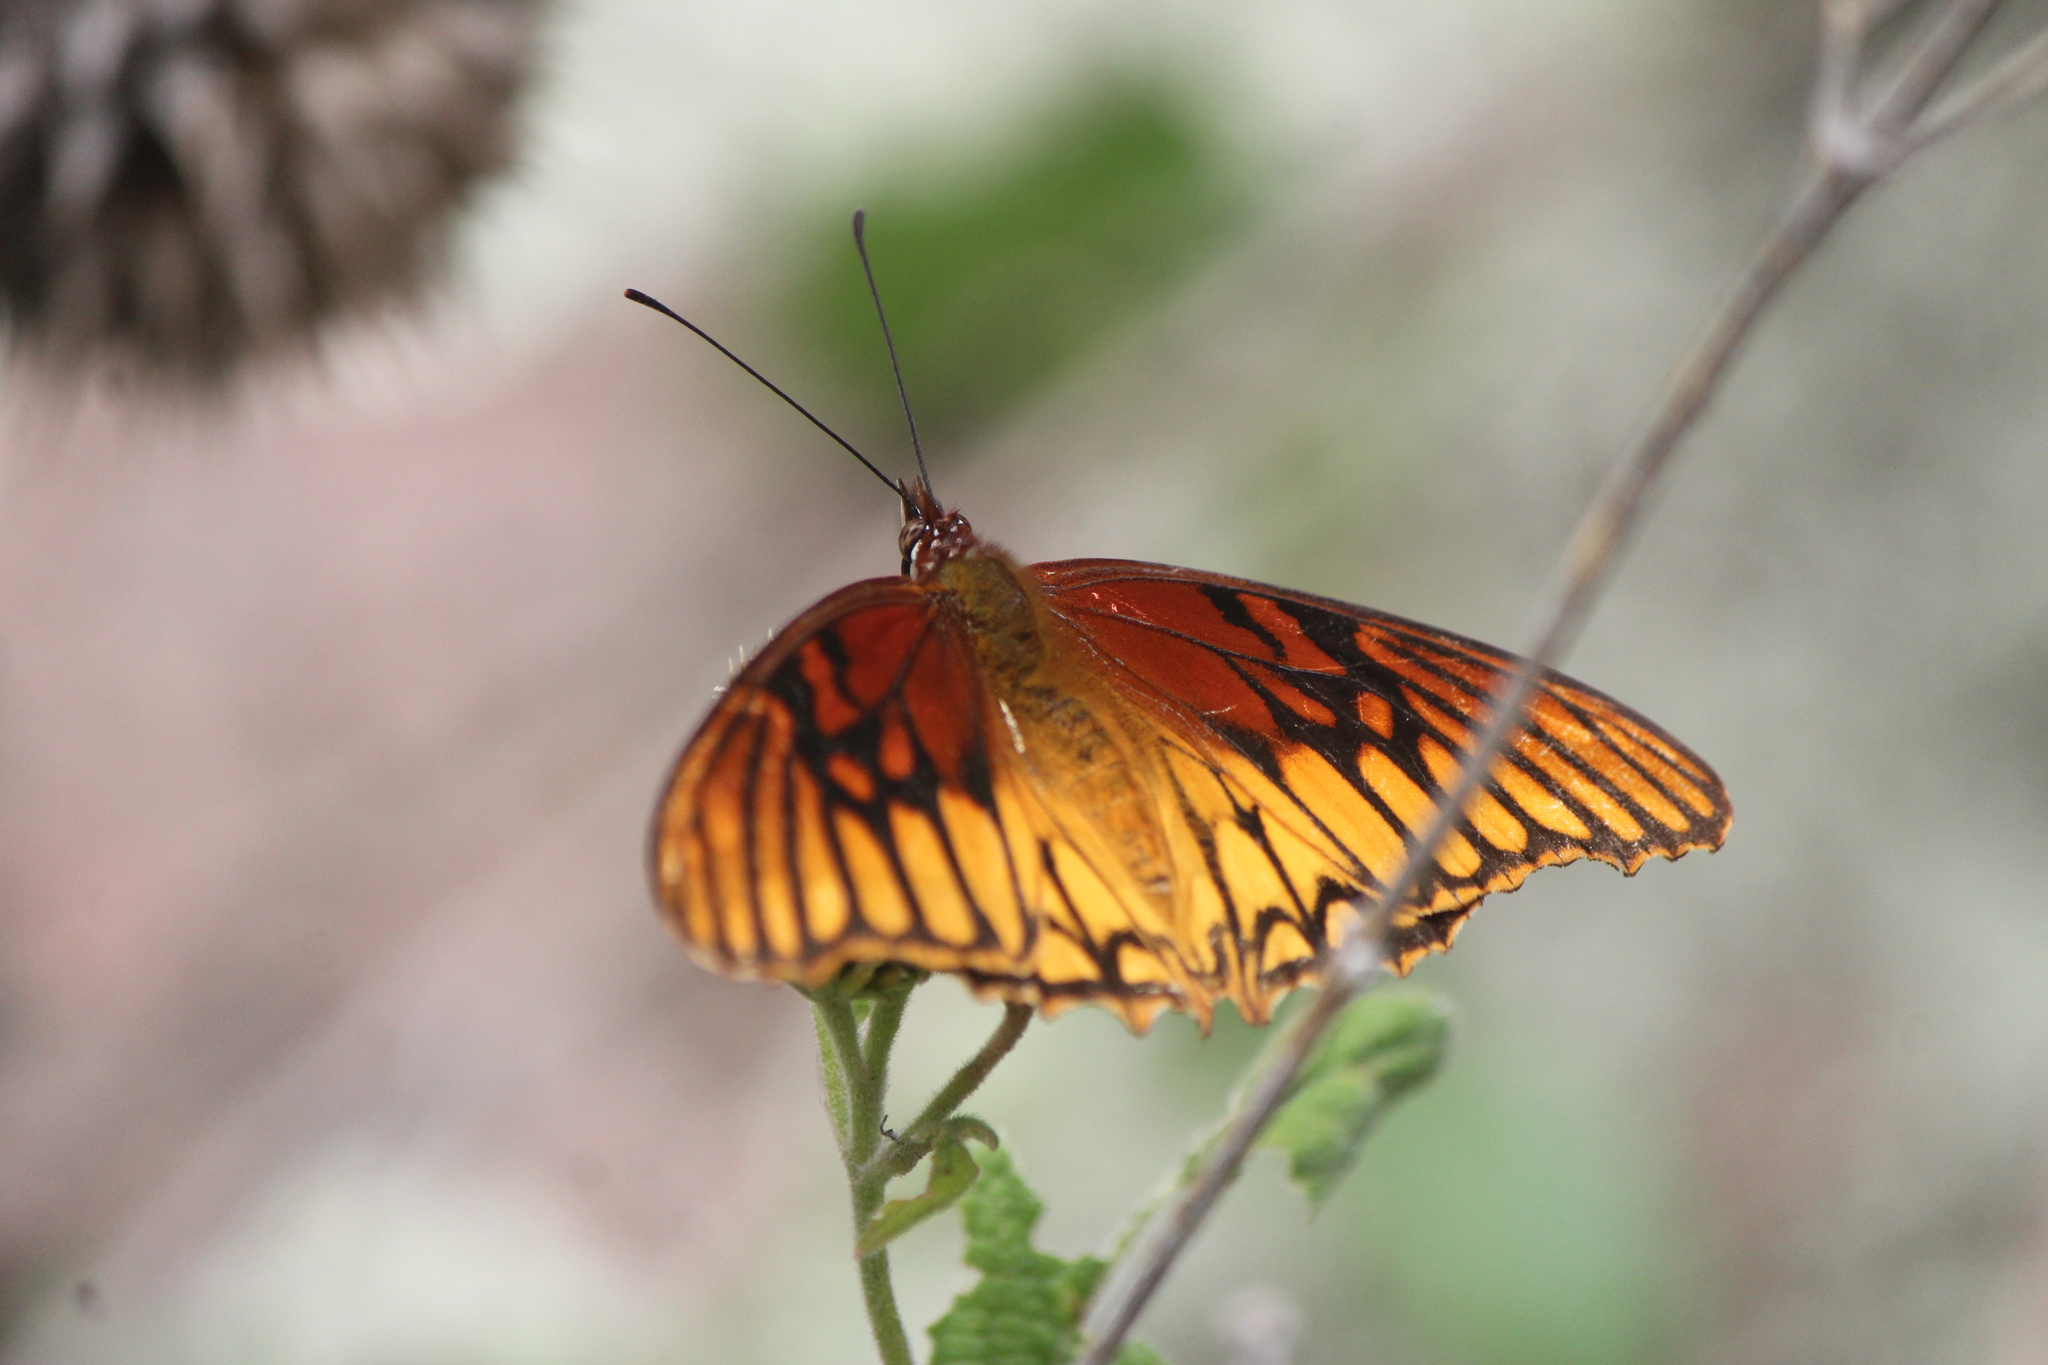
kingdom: Animalia
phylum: Arthropoda
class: Insecta
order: Lepidoptera
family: Nymphalidae
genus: Dione
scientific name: Dione moneta
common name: Mexican silverspot
